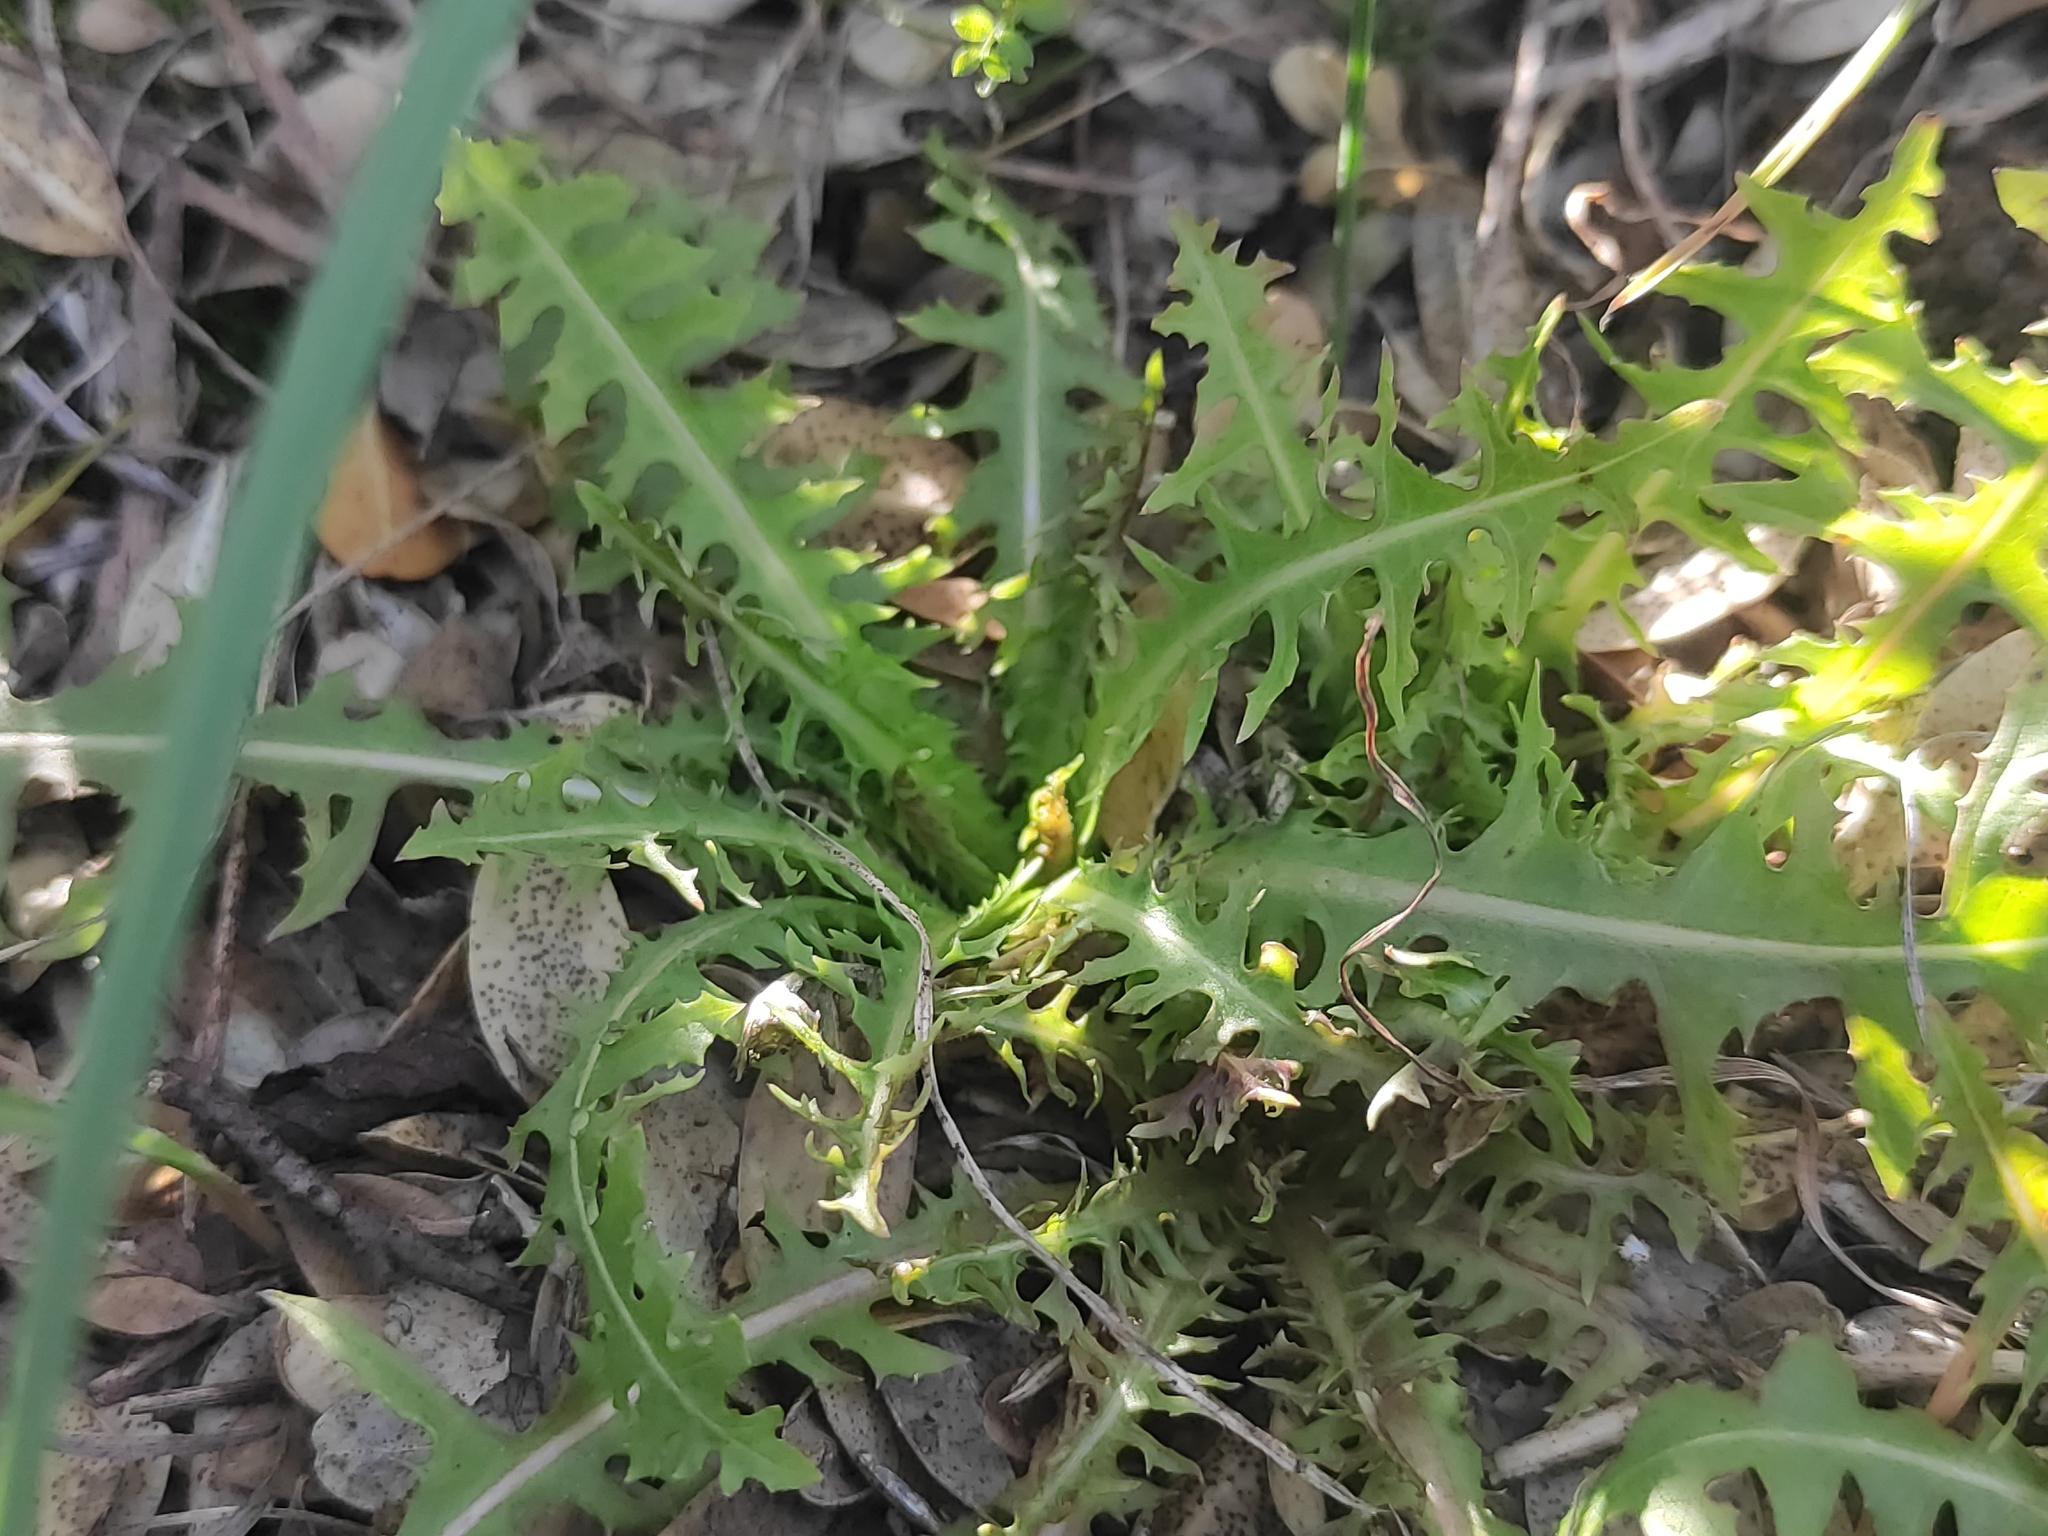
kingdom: Plantae
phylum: Tracheophyta
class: Magnoliopsida
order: Asterales
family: Asteraceae
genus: Lactuca
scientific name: Lactuca perennis
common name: Mountain lettuce
